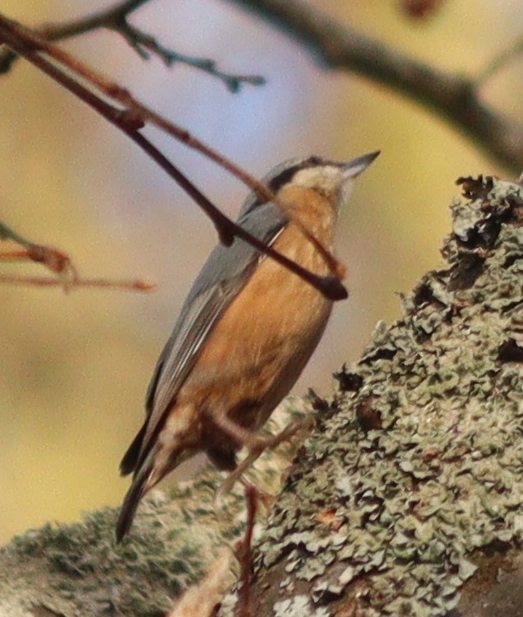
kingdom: Animalia
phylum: Chordata
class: Aves
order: Passeriformes
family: Sittidae
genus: Sitta
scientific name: Sitta europaea
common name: Eurasian nuthatch
